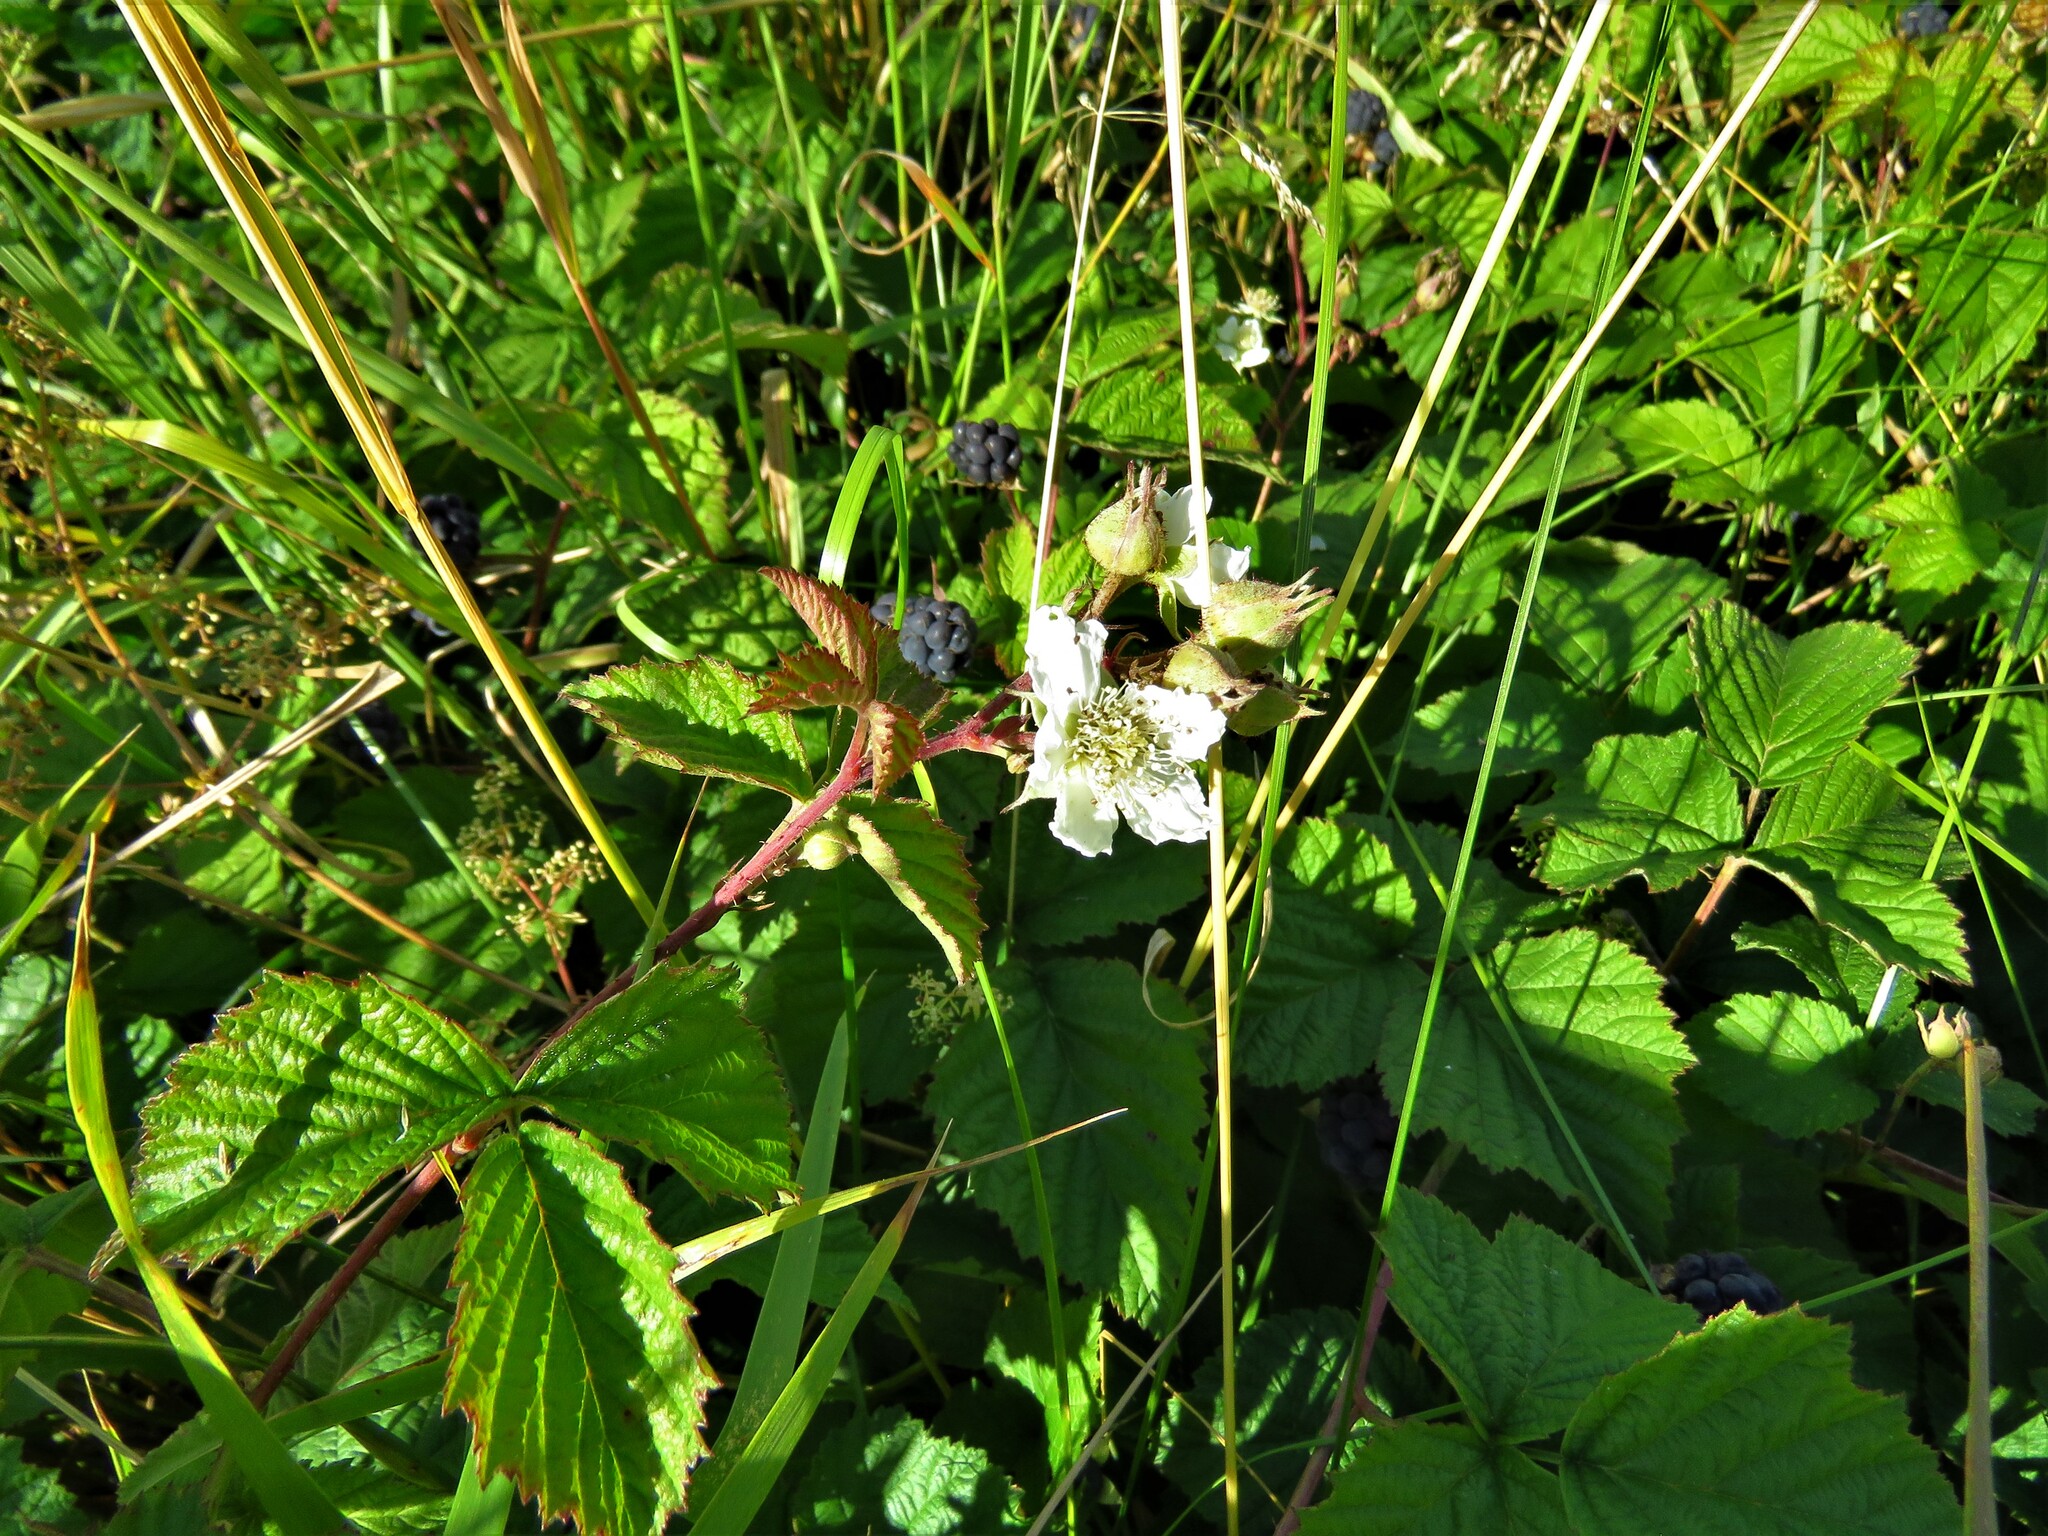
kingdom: Plantae
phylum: Tracheophyta
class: Magnoliopsida
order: Rosales
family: Rosaceae
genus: Rubus
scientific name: Rubus caesius
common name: Dewberry
